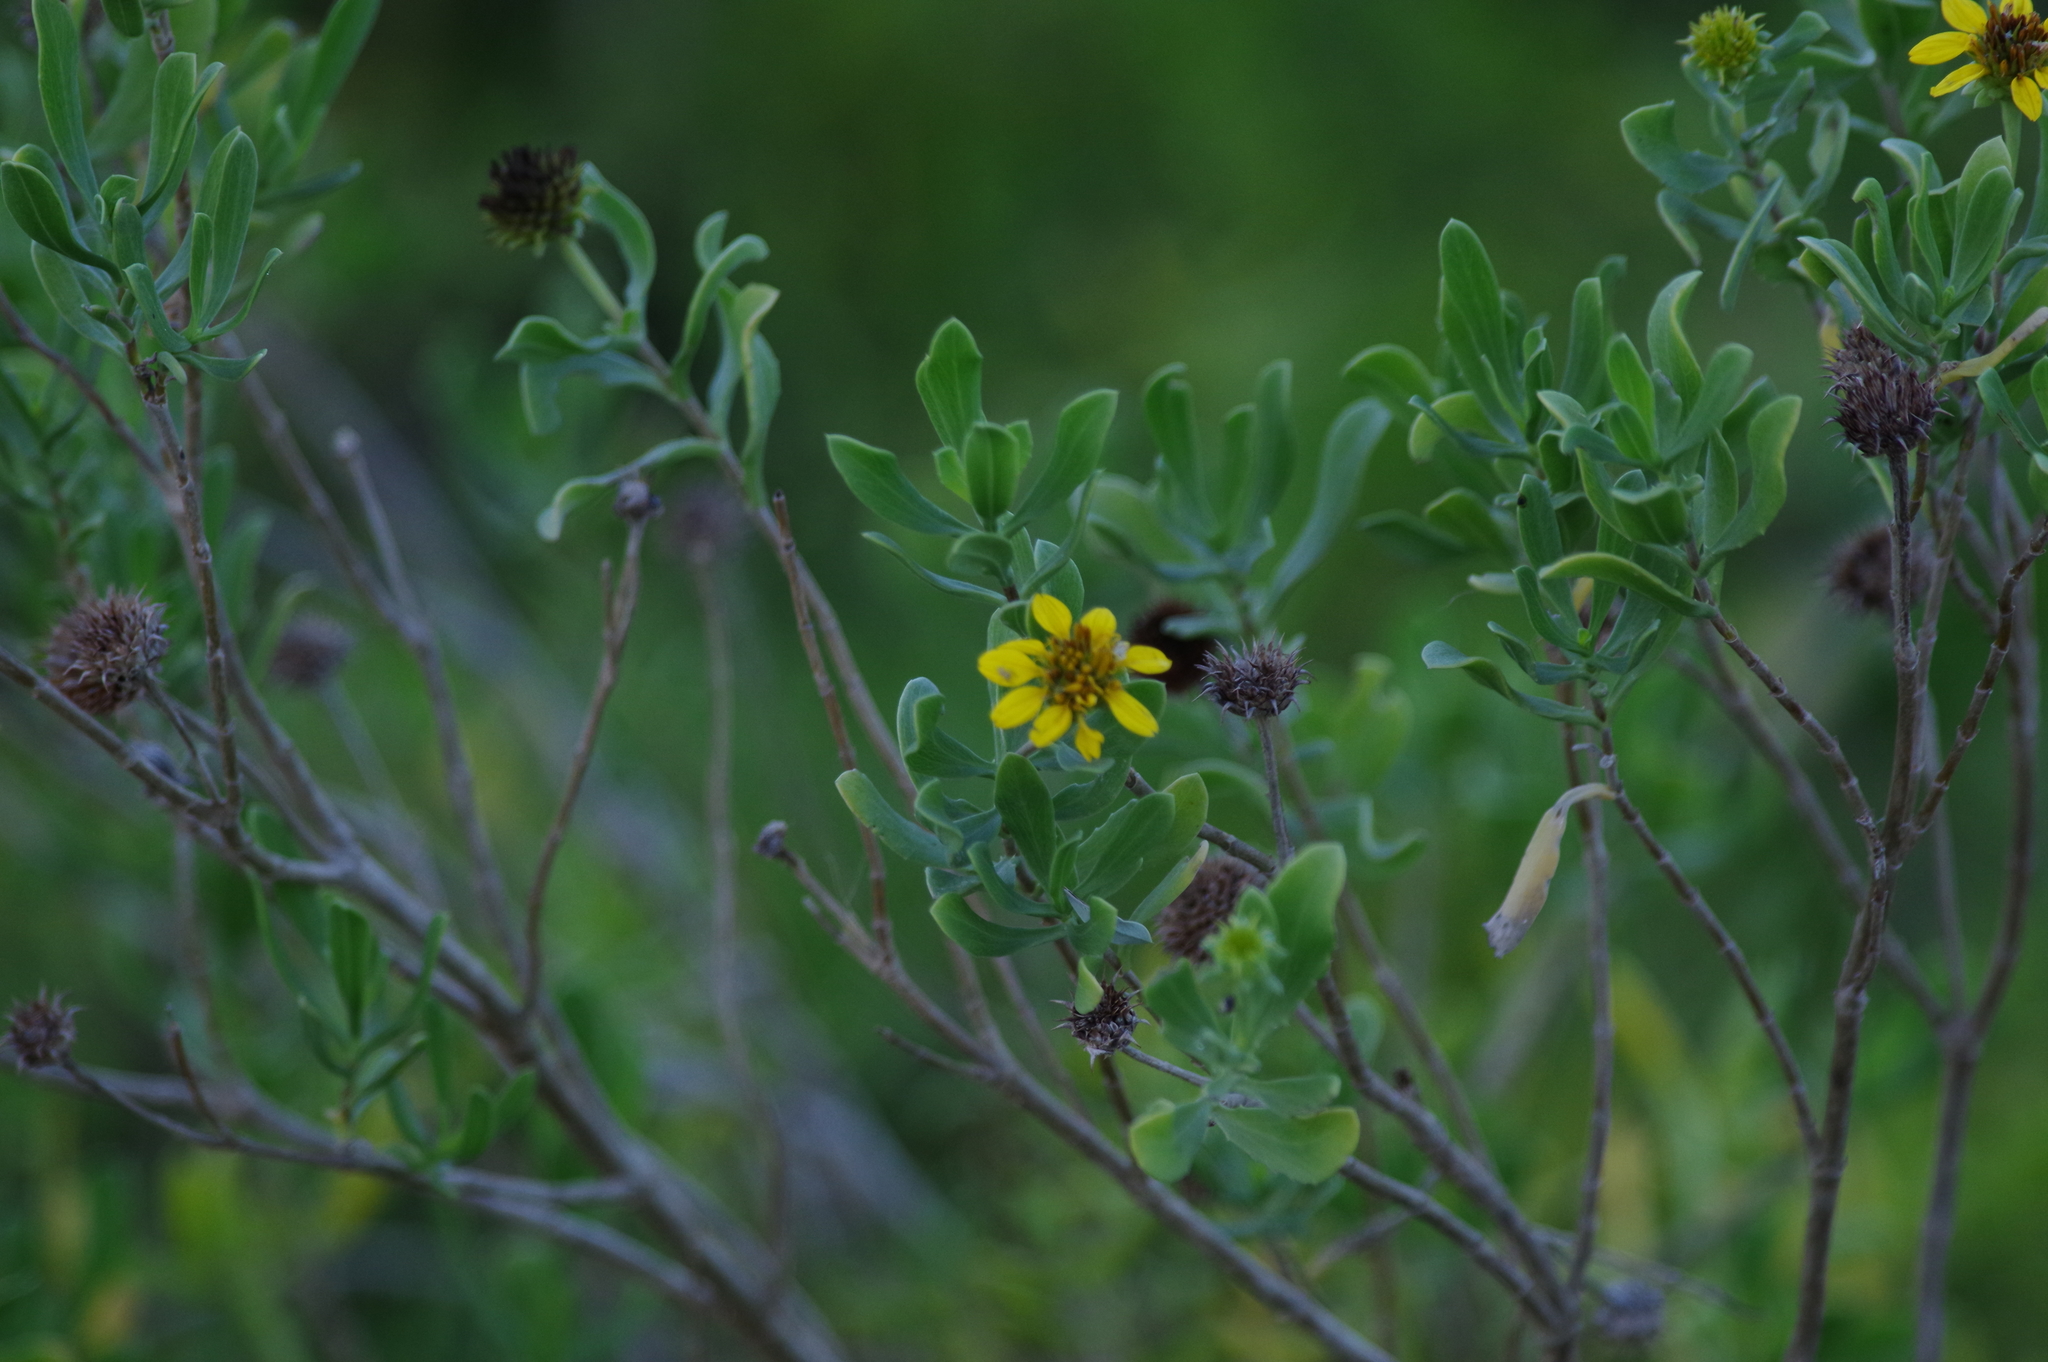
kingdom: Plantae
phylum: Tracheophyta
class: Magnoliopsida
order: Asterales
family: Asteraceae
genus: Borrichia
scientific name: Borrichia frutescens
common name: Sea oxeye
